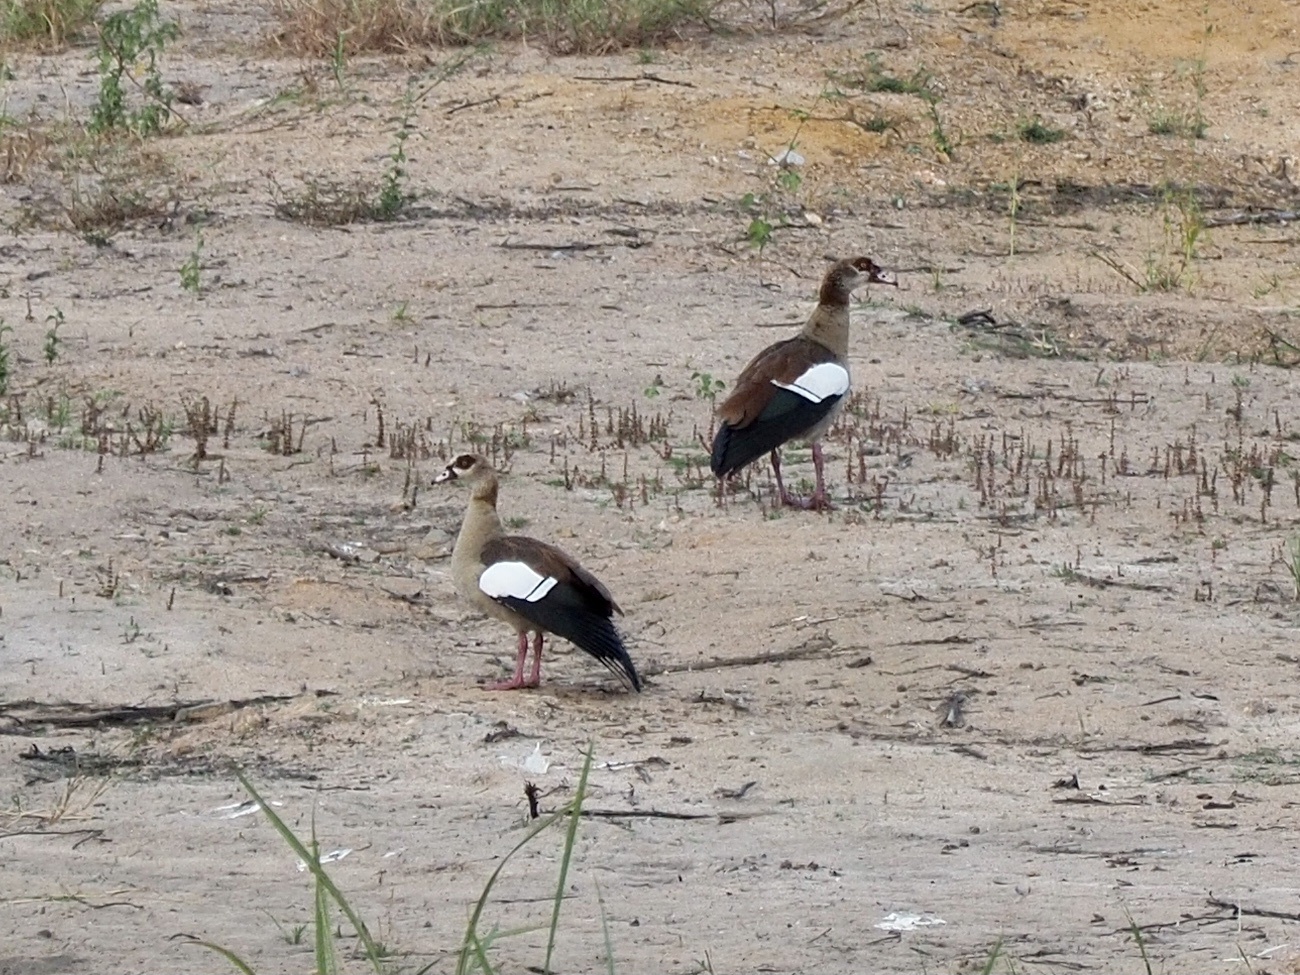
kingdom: Animalia
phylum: Chordata
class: Aves
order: Anseriformes
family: Anatidae
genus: Alopochen
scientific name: Alopochen aegyptiaca
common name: Egyptian goose
